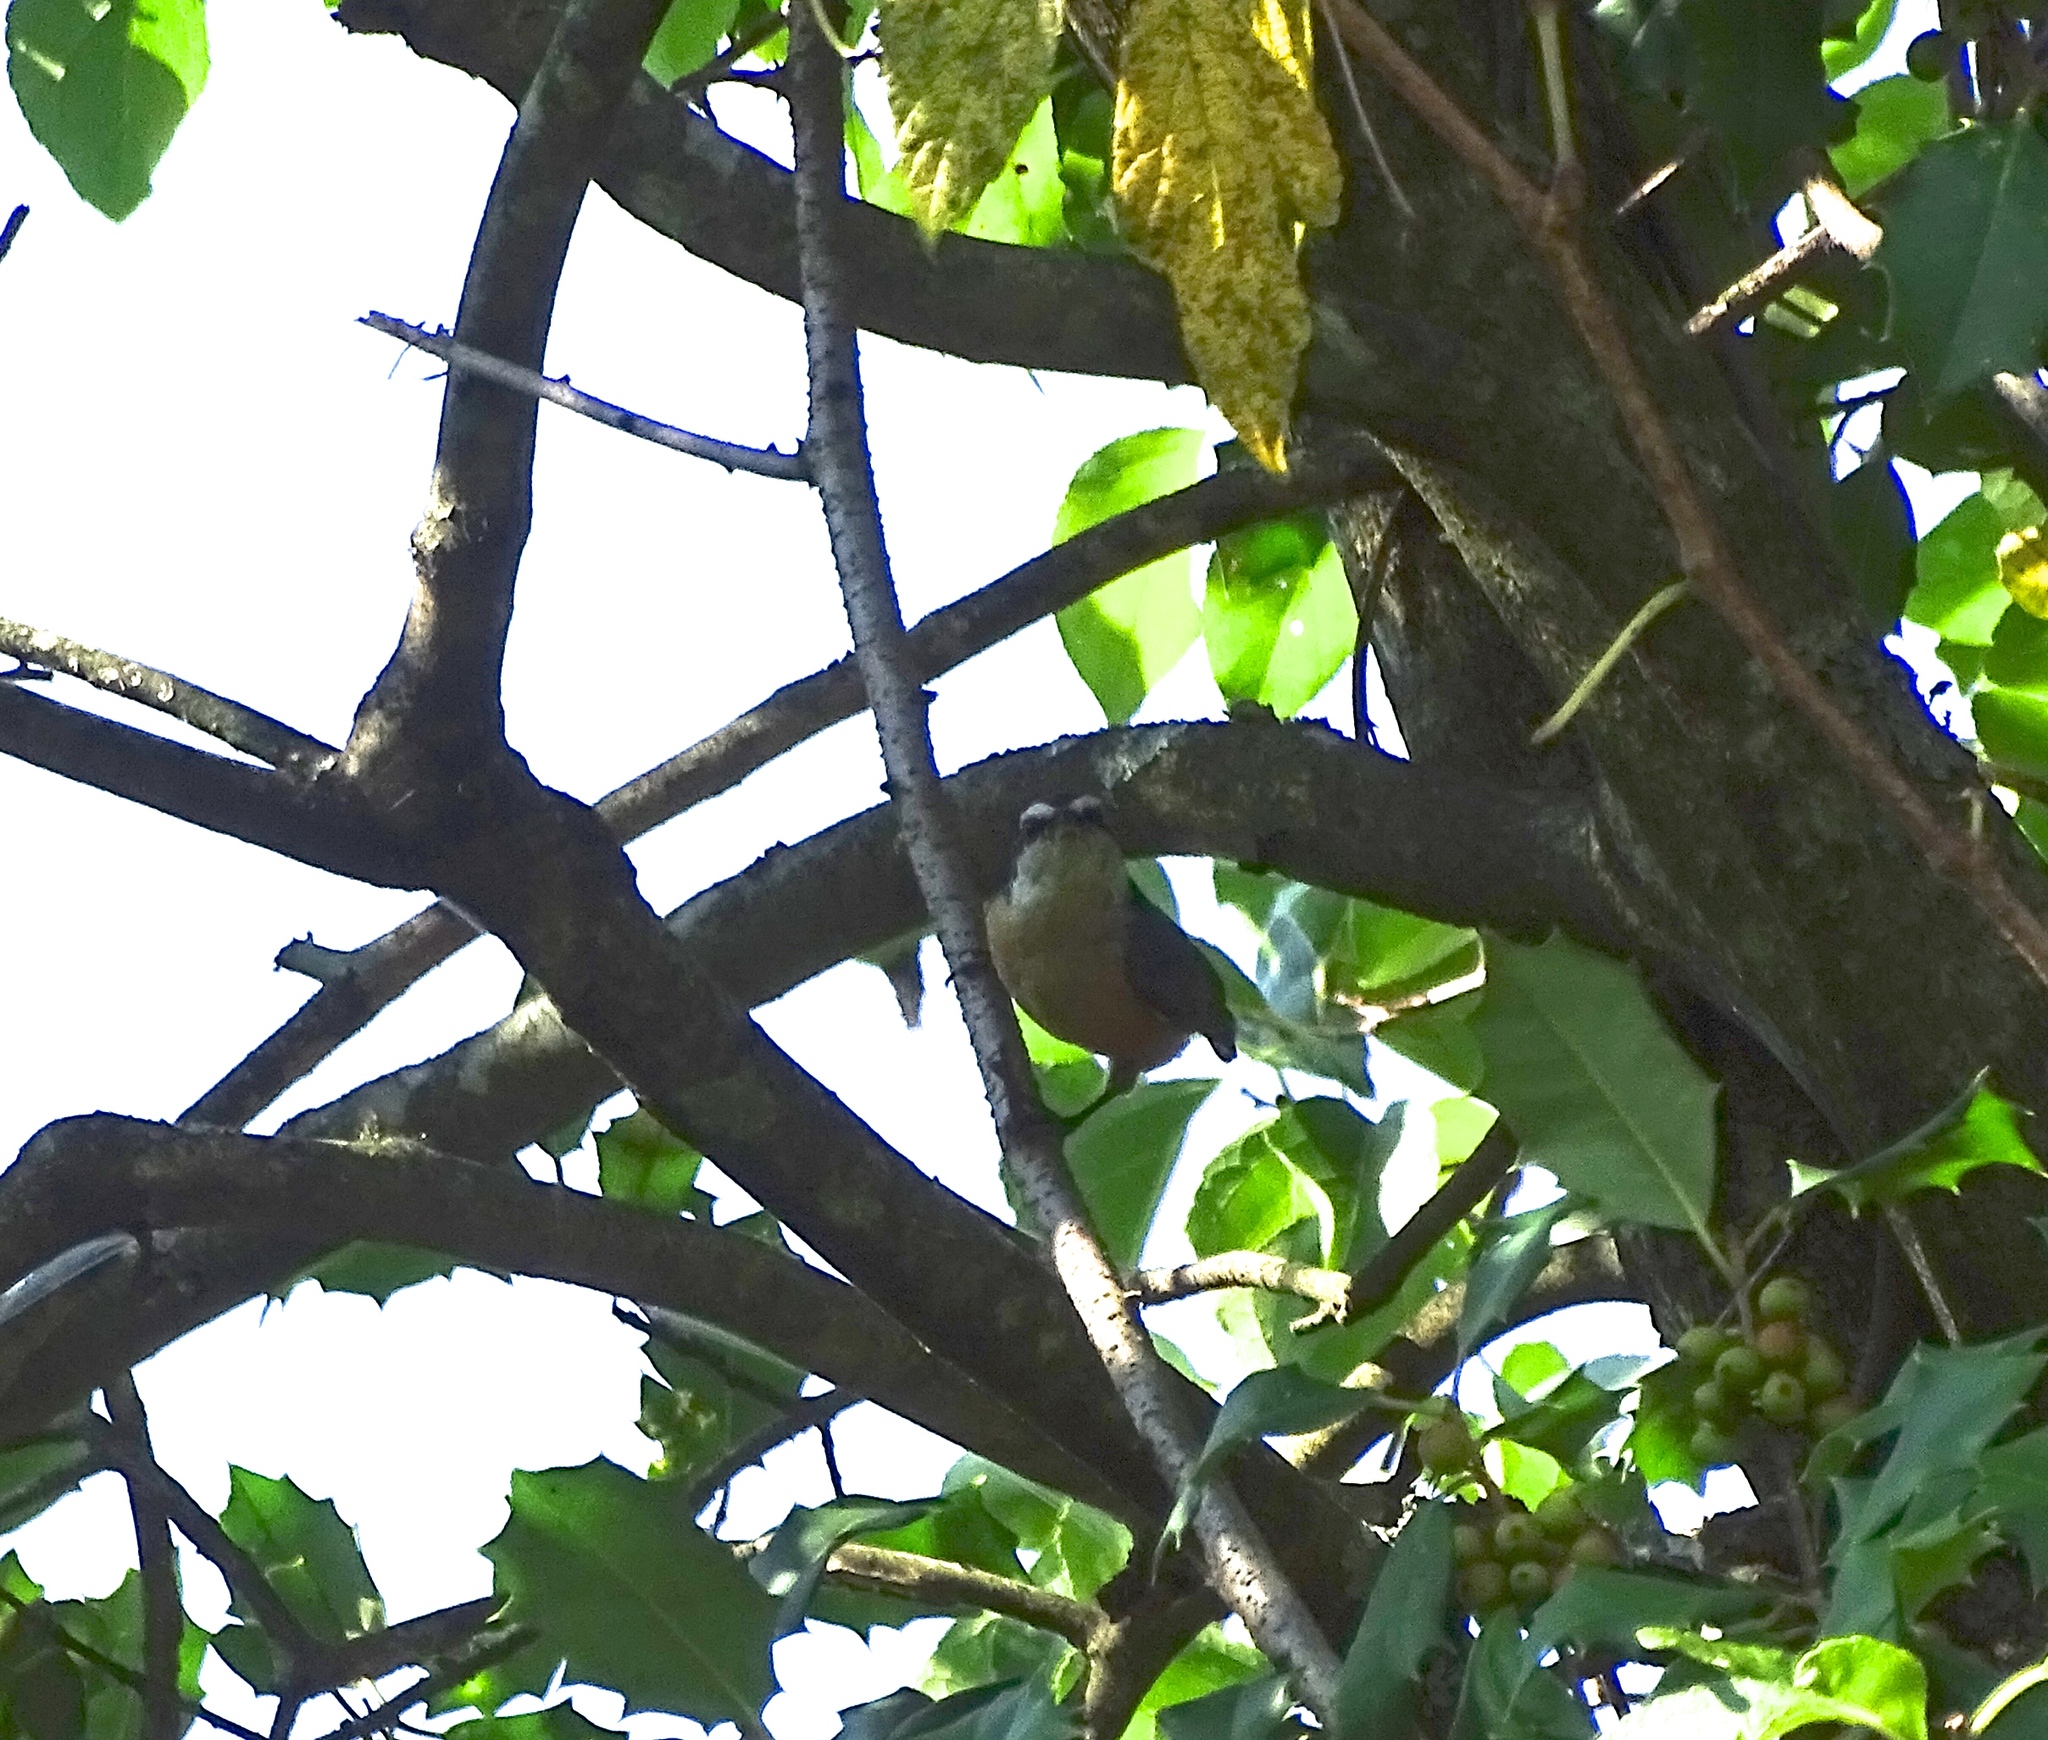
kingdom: Animalia
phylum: Chordata
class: Aves
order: Passeriformes
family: Sittidae
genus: Sitta
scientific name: Sitta canadensis
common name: Red-breasted nuthatch
